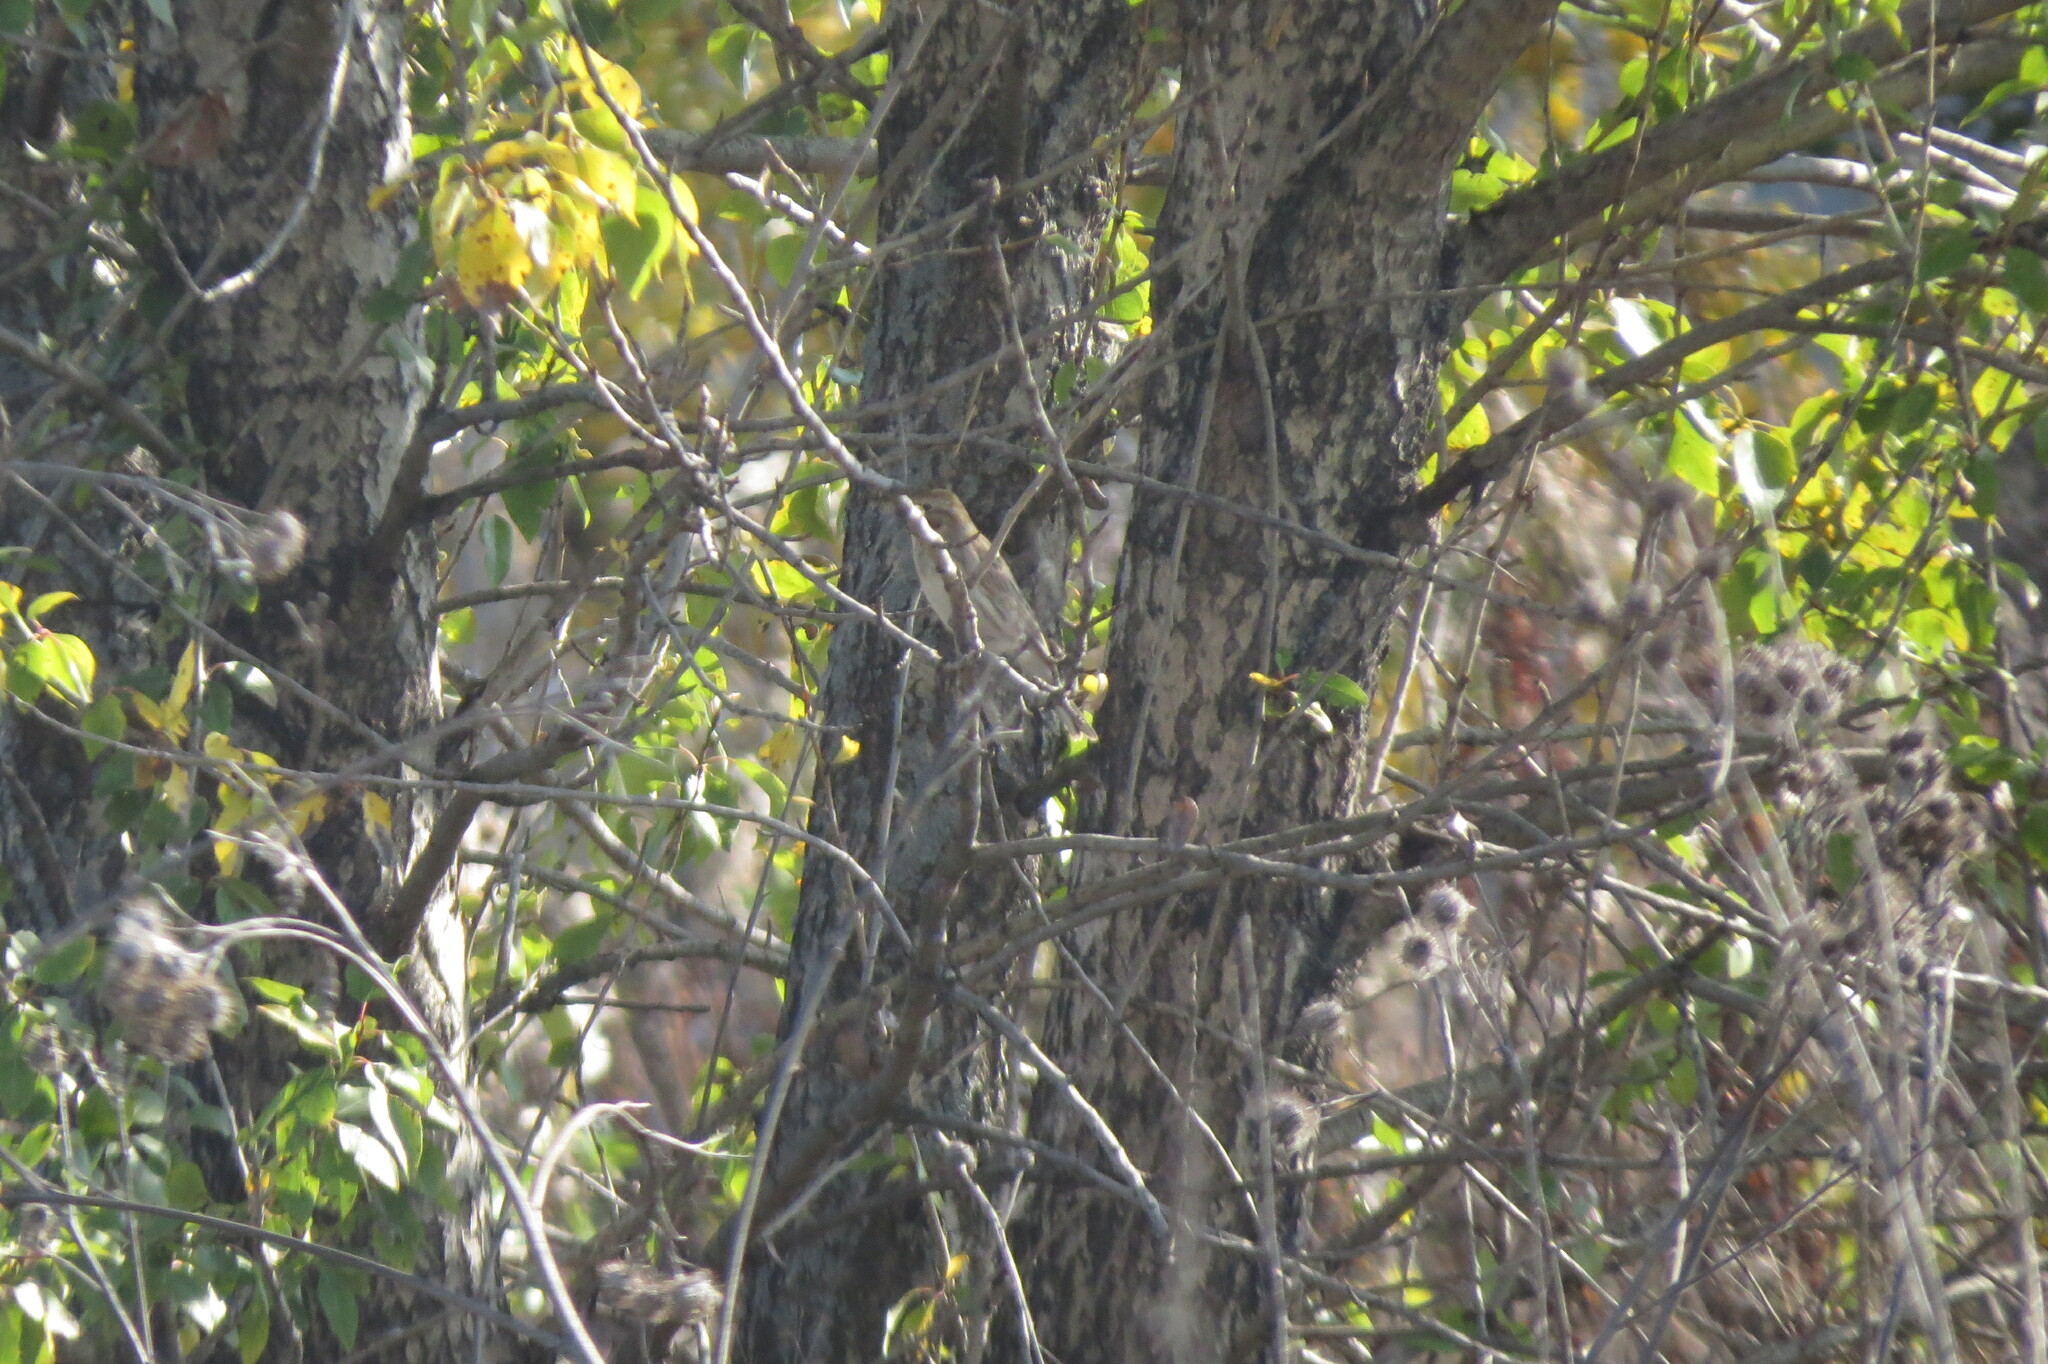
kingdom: Animalia
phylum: Chordata
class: Aves
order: Passeriformes
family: Emberizidae
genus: Emberiza
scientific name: Emberiza schoeniclus
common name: Reed bunting
